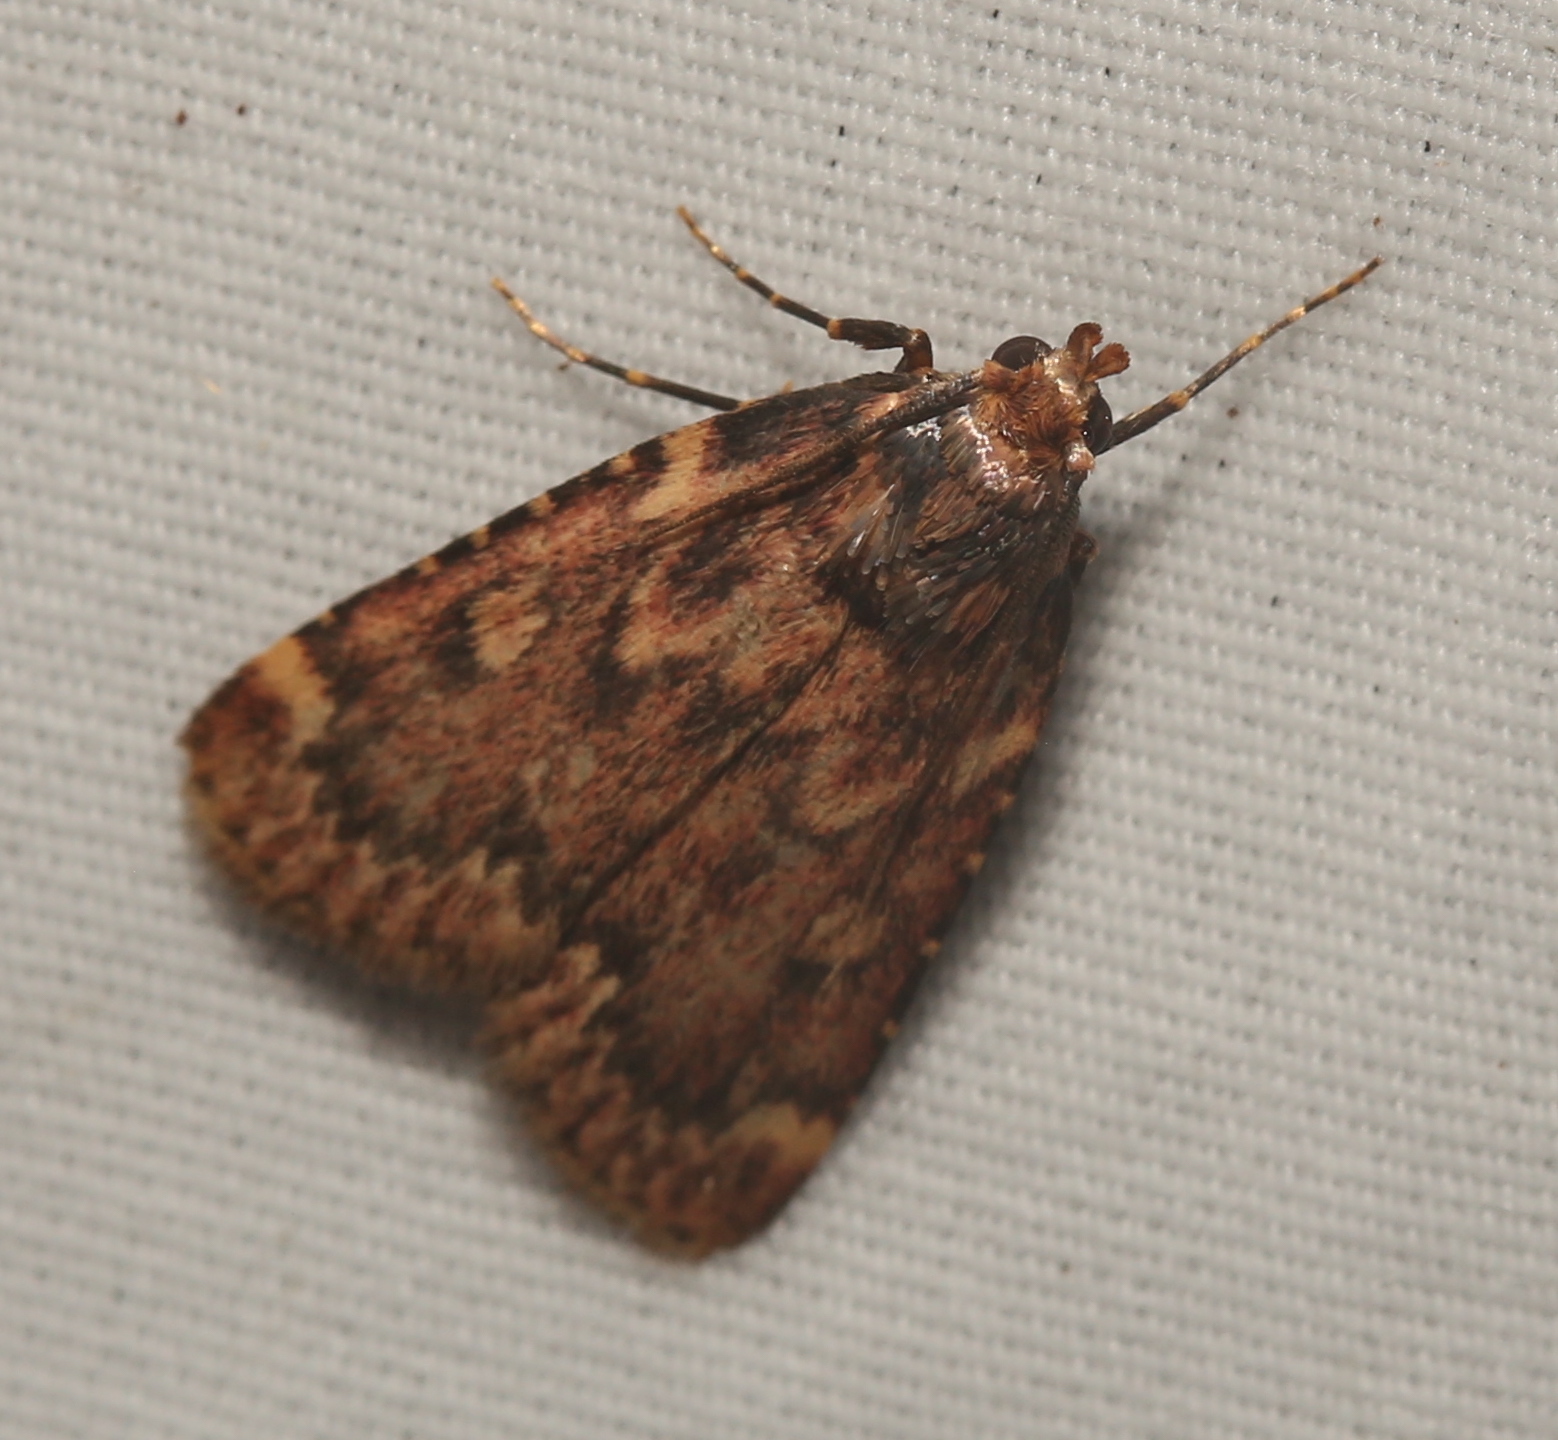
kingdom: Animalia
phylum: Arthropoda
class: Insecta
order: Lepidoptera
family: Pyralidae
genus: Aglossa
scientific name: Aglossa cuprina
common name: Grease moth
